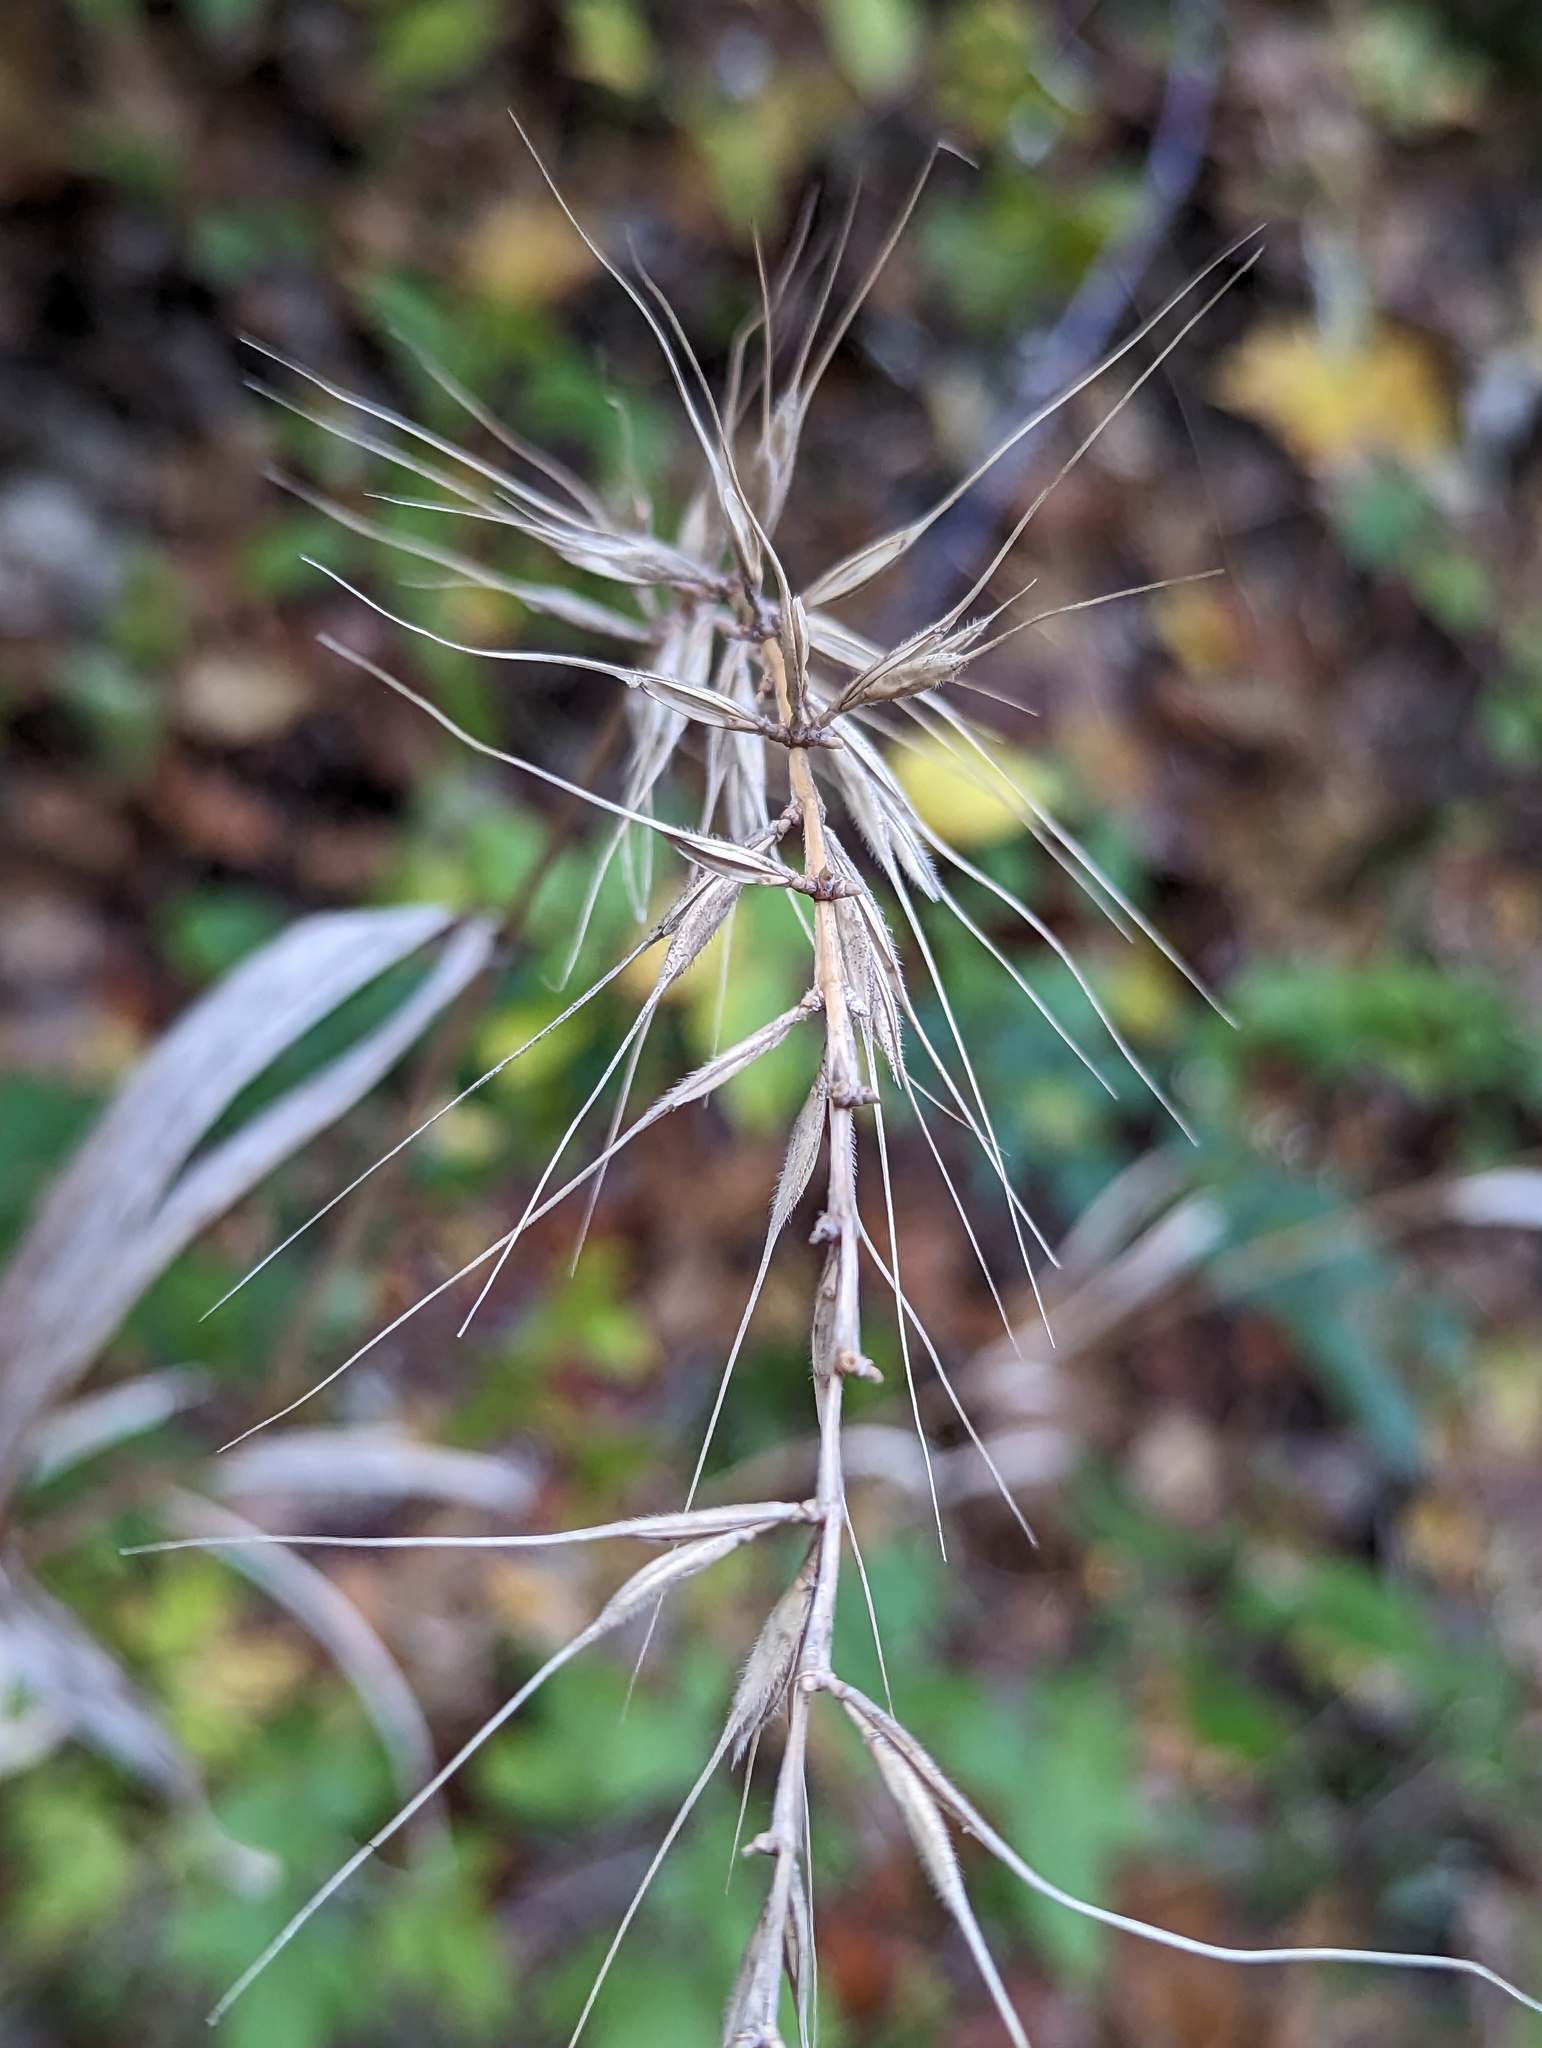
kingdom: Plantae
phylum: Tracheophyta
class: Liliopsida
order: Poales
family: Poaceae
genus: Elymus
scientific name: Elymus hystrix
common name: Bottlebrush grass
